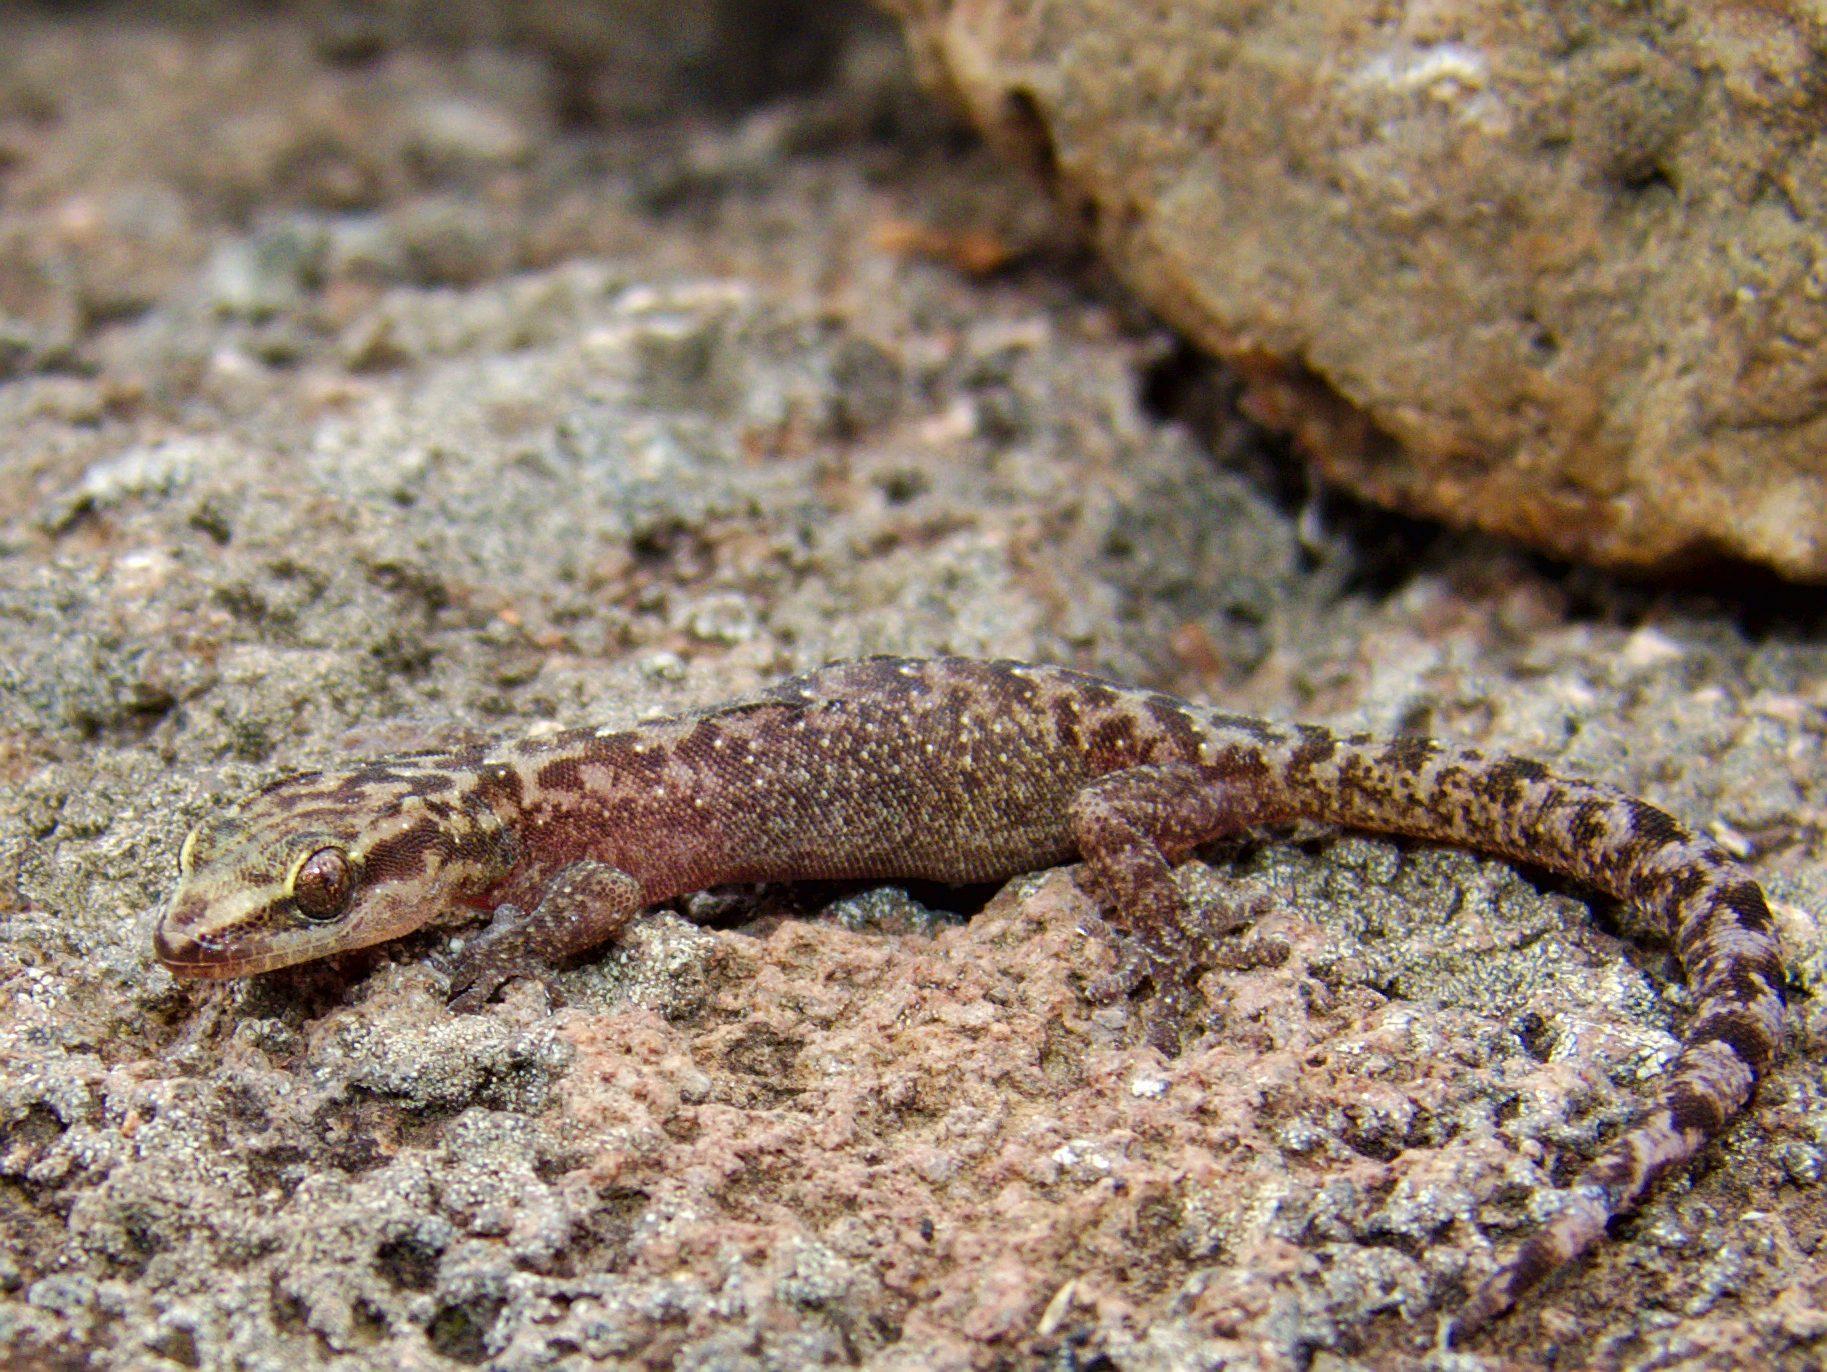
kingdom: Animalia
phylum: Chordata
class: Squamata
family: Gekkonidae
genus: Afroedura
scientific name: Afroedura marleyi
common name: Marley's flat gecko
